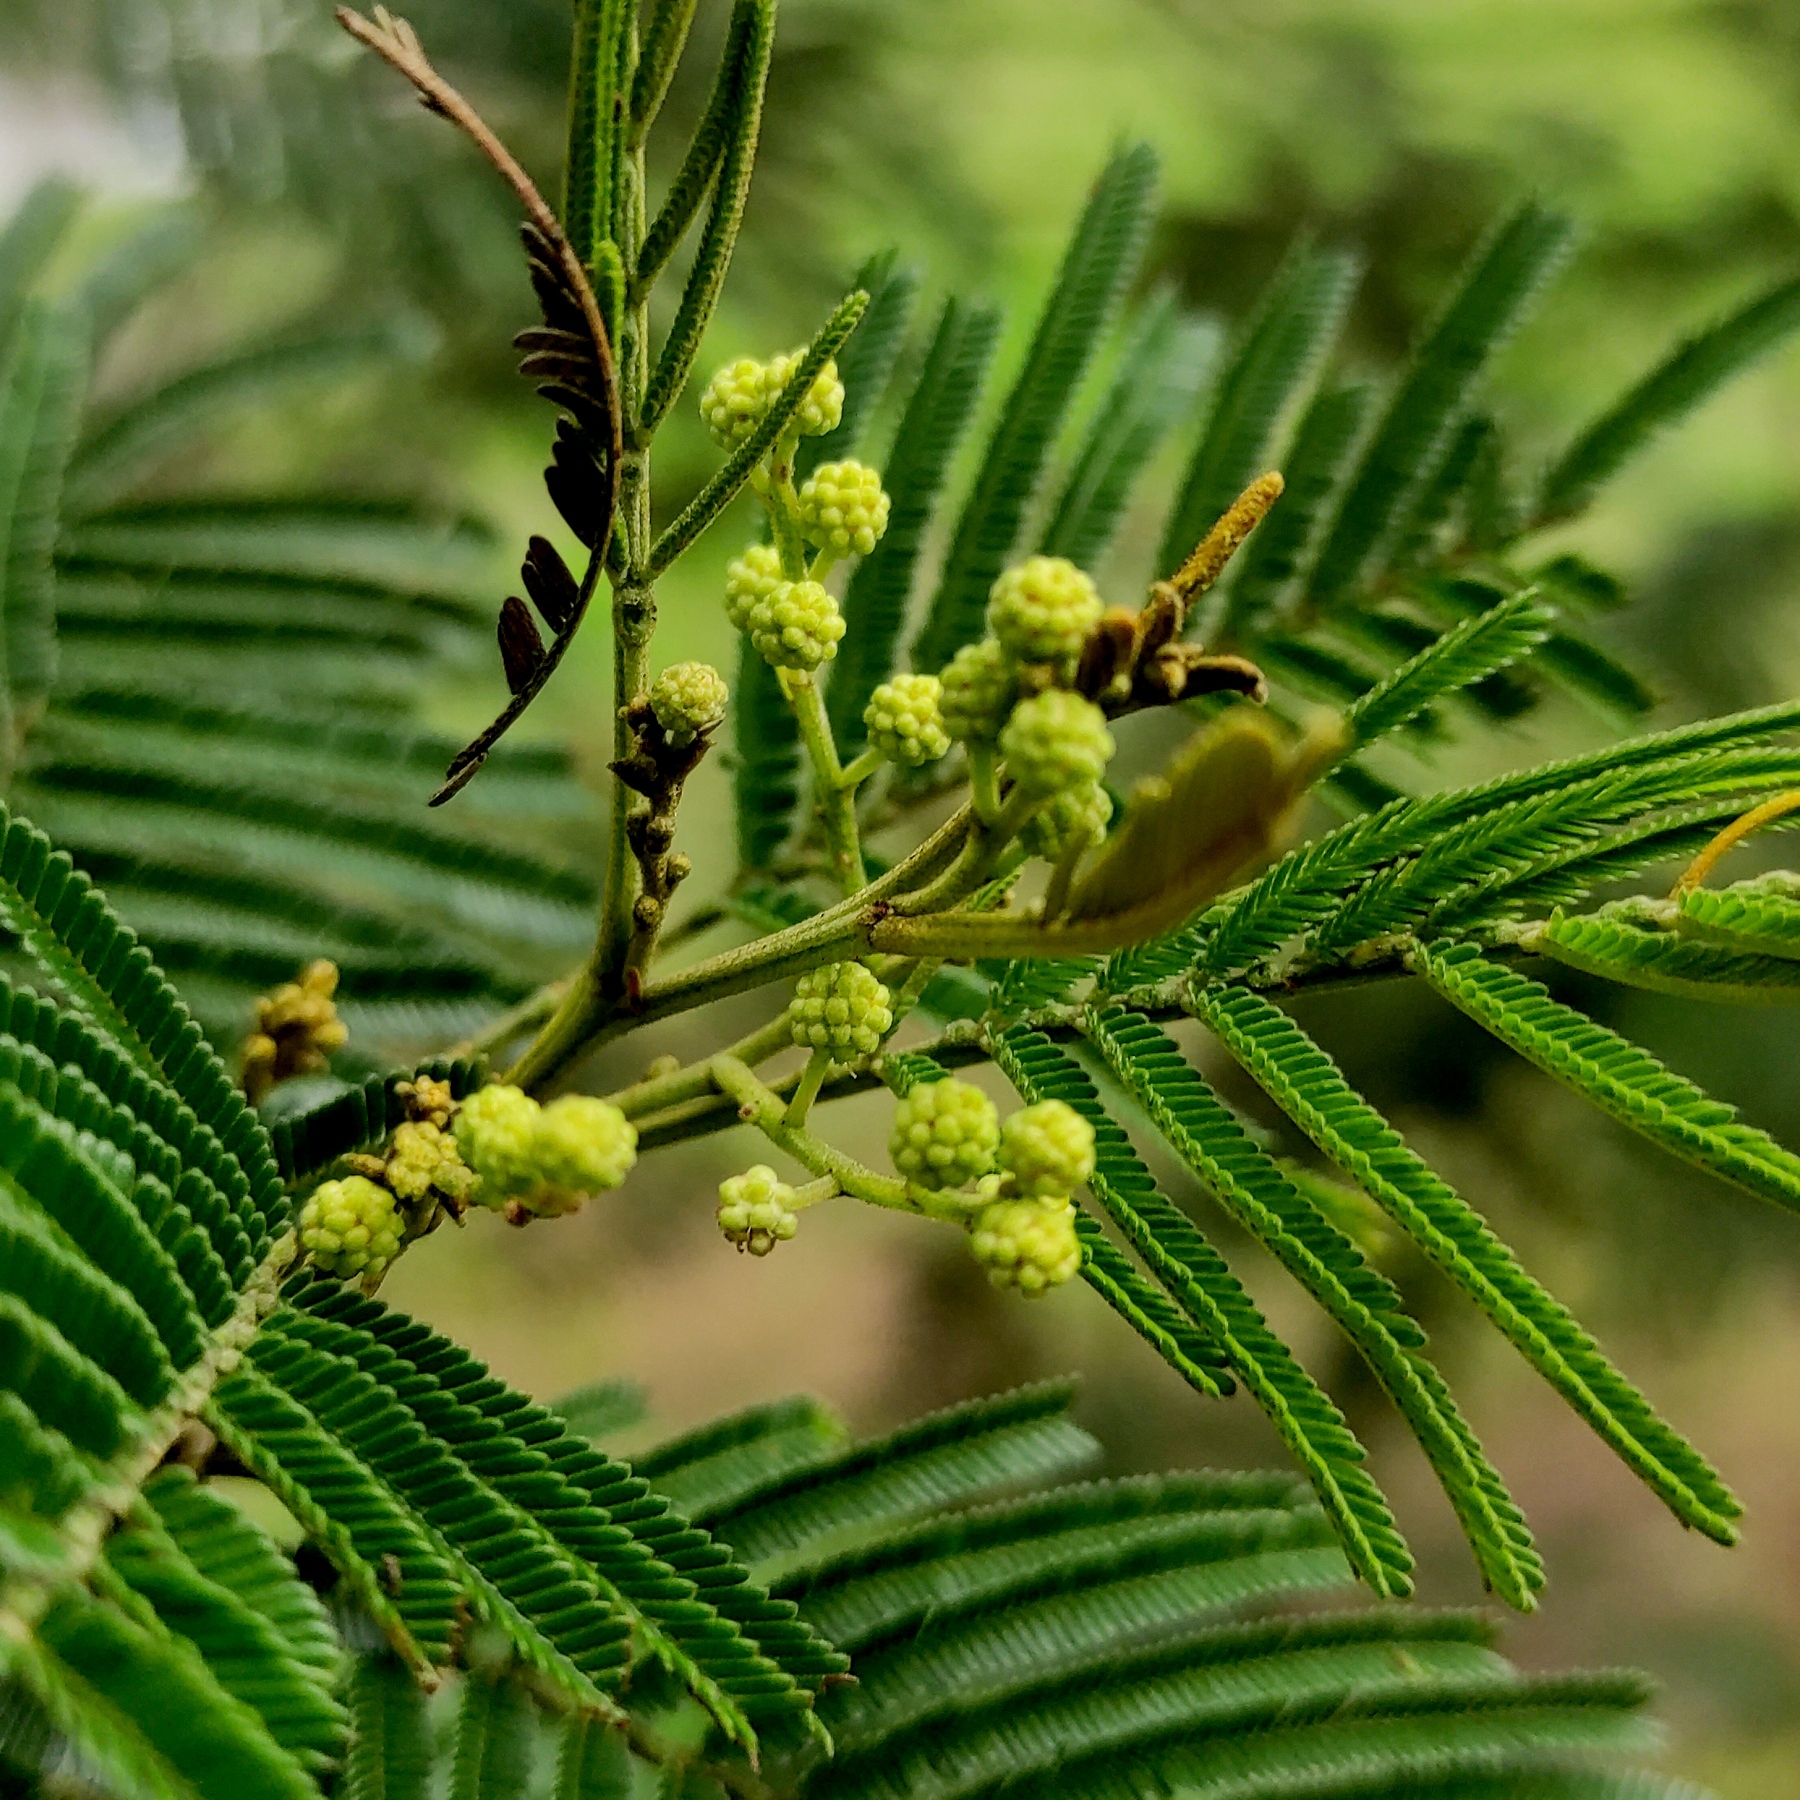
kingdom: Plantae
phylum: Tracheophyta
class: Magnoliopsida
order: Fabales
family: Fabaceae
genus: Acacia
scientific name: Acacia mearnsii
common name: Black wattle
